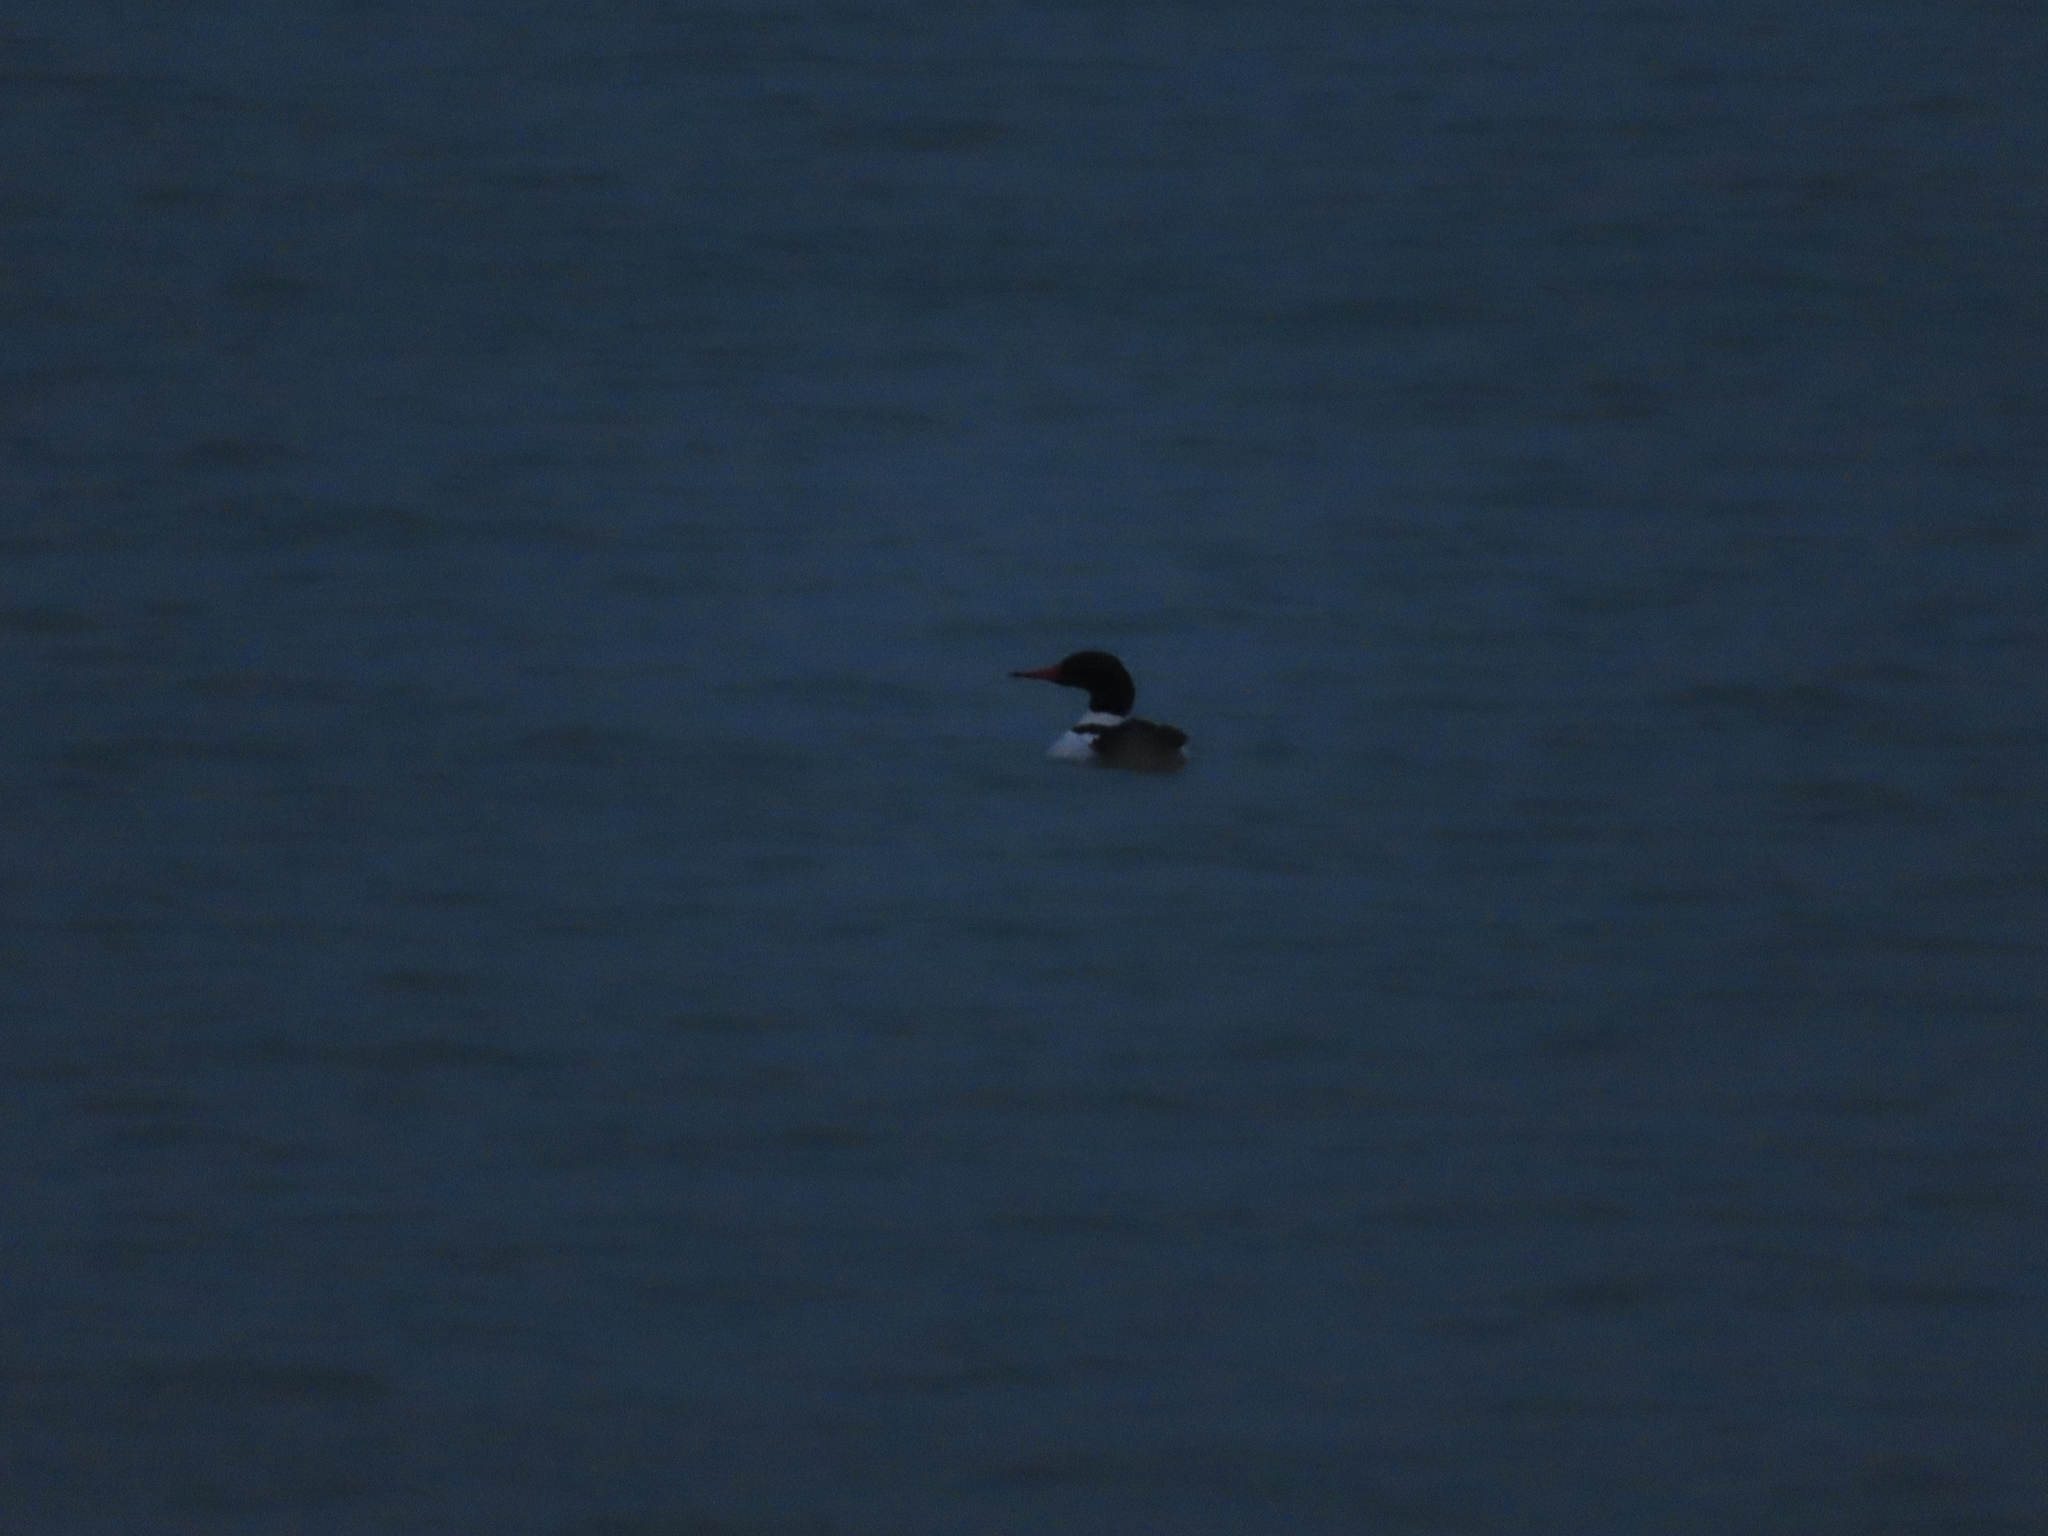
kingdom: Animalia
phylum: Chordata
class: Aves
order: Anseriformes
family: Anatidae
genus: Mergus
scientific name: Mergus merganser
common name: Common merganser
